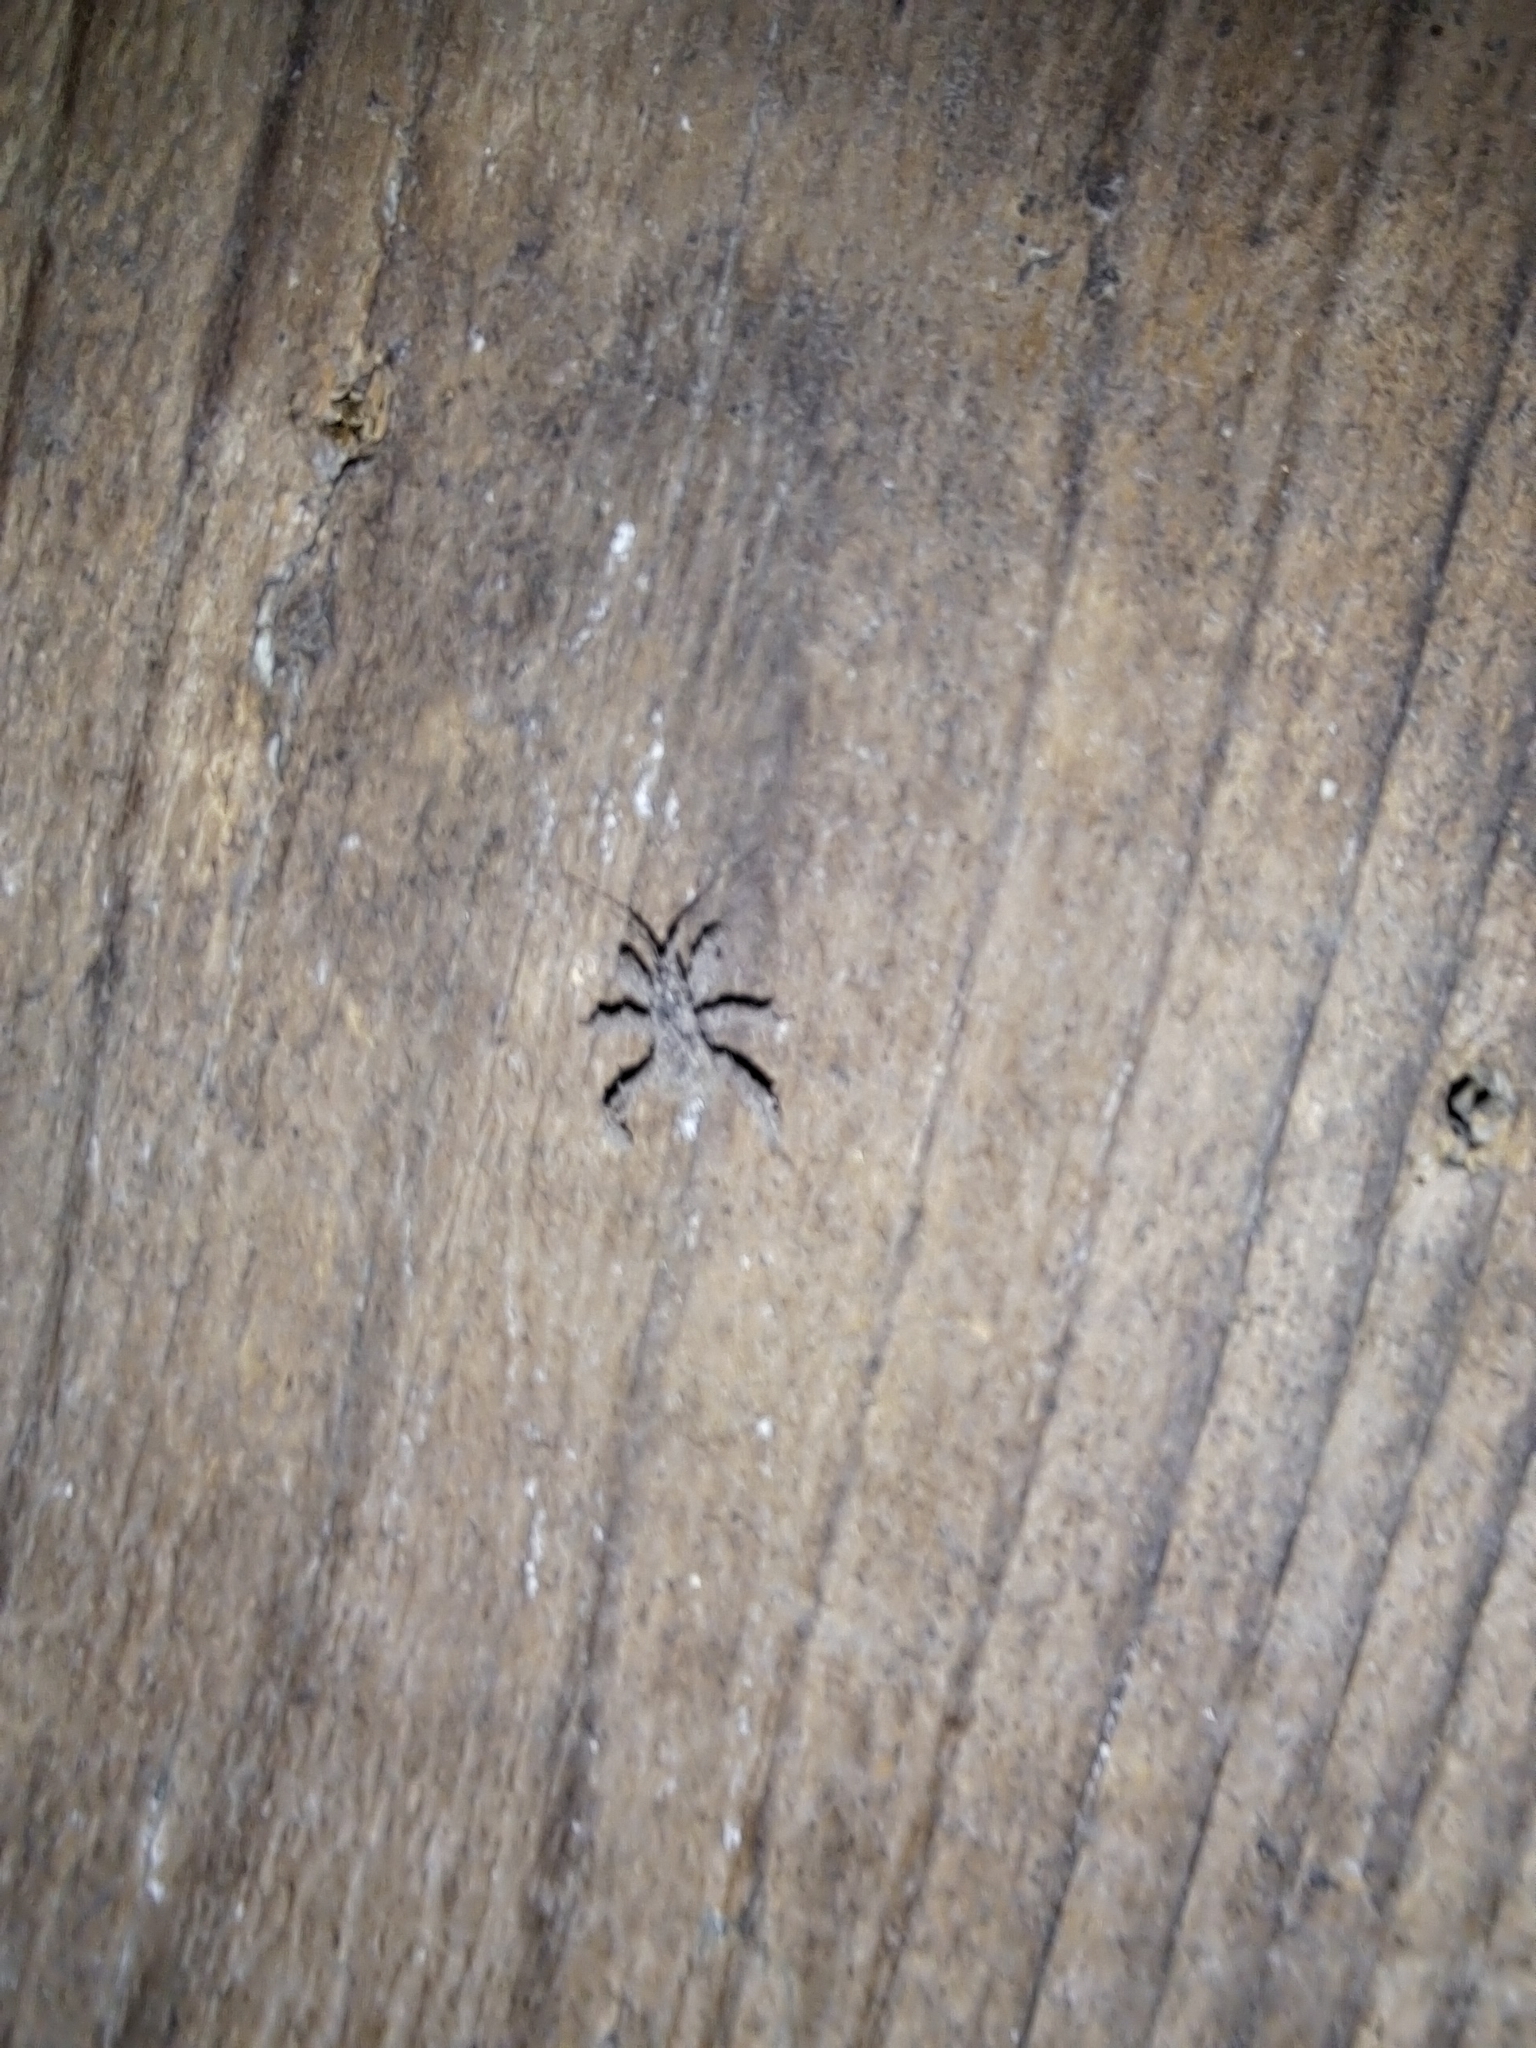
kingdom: Animalia
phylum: Arthropoda
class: Insecta
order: Hemiptera
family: Reduviidae
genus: Reduvius
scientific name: Reduvius personatus
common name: Masked hunter
